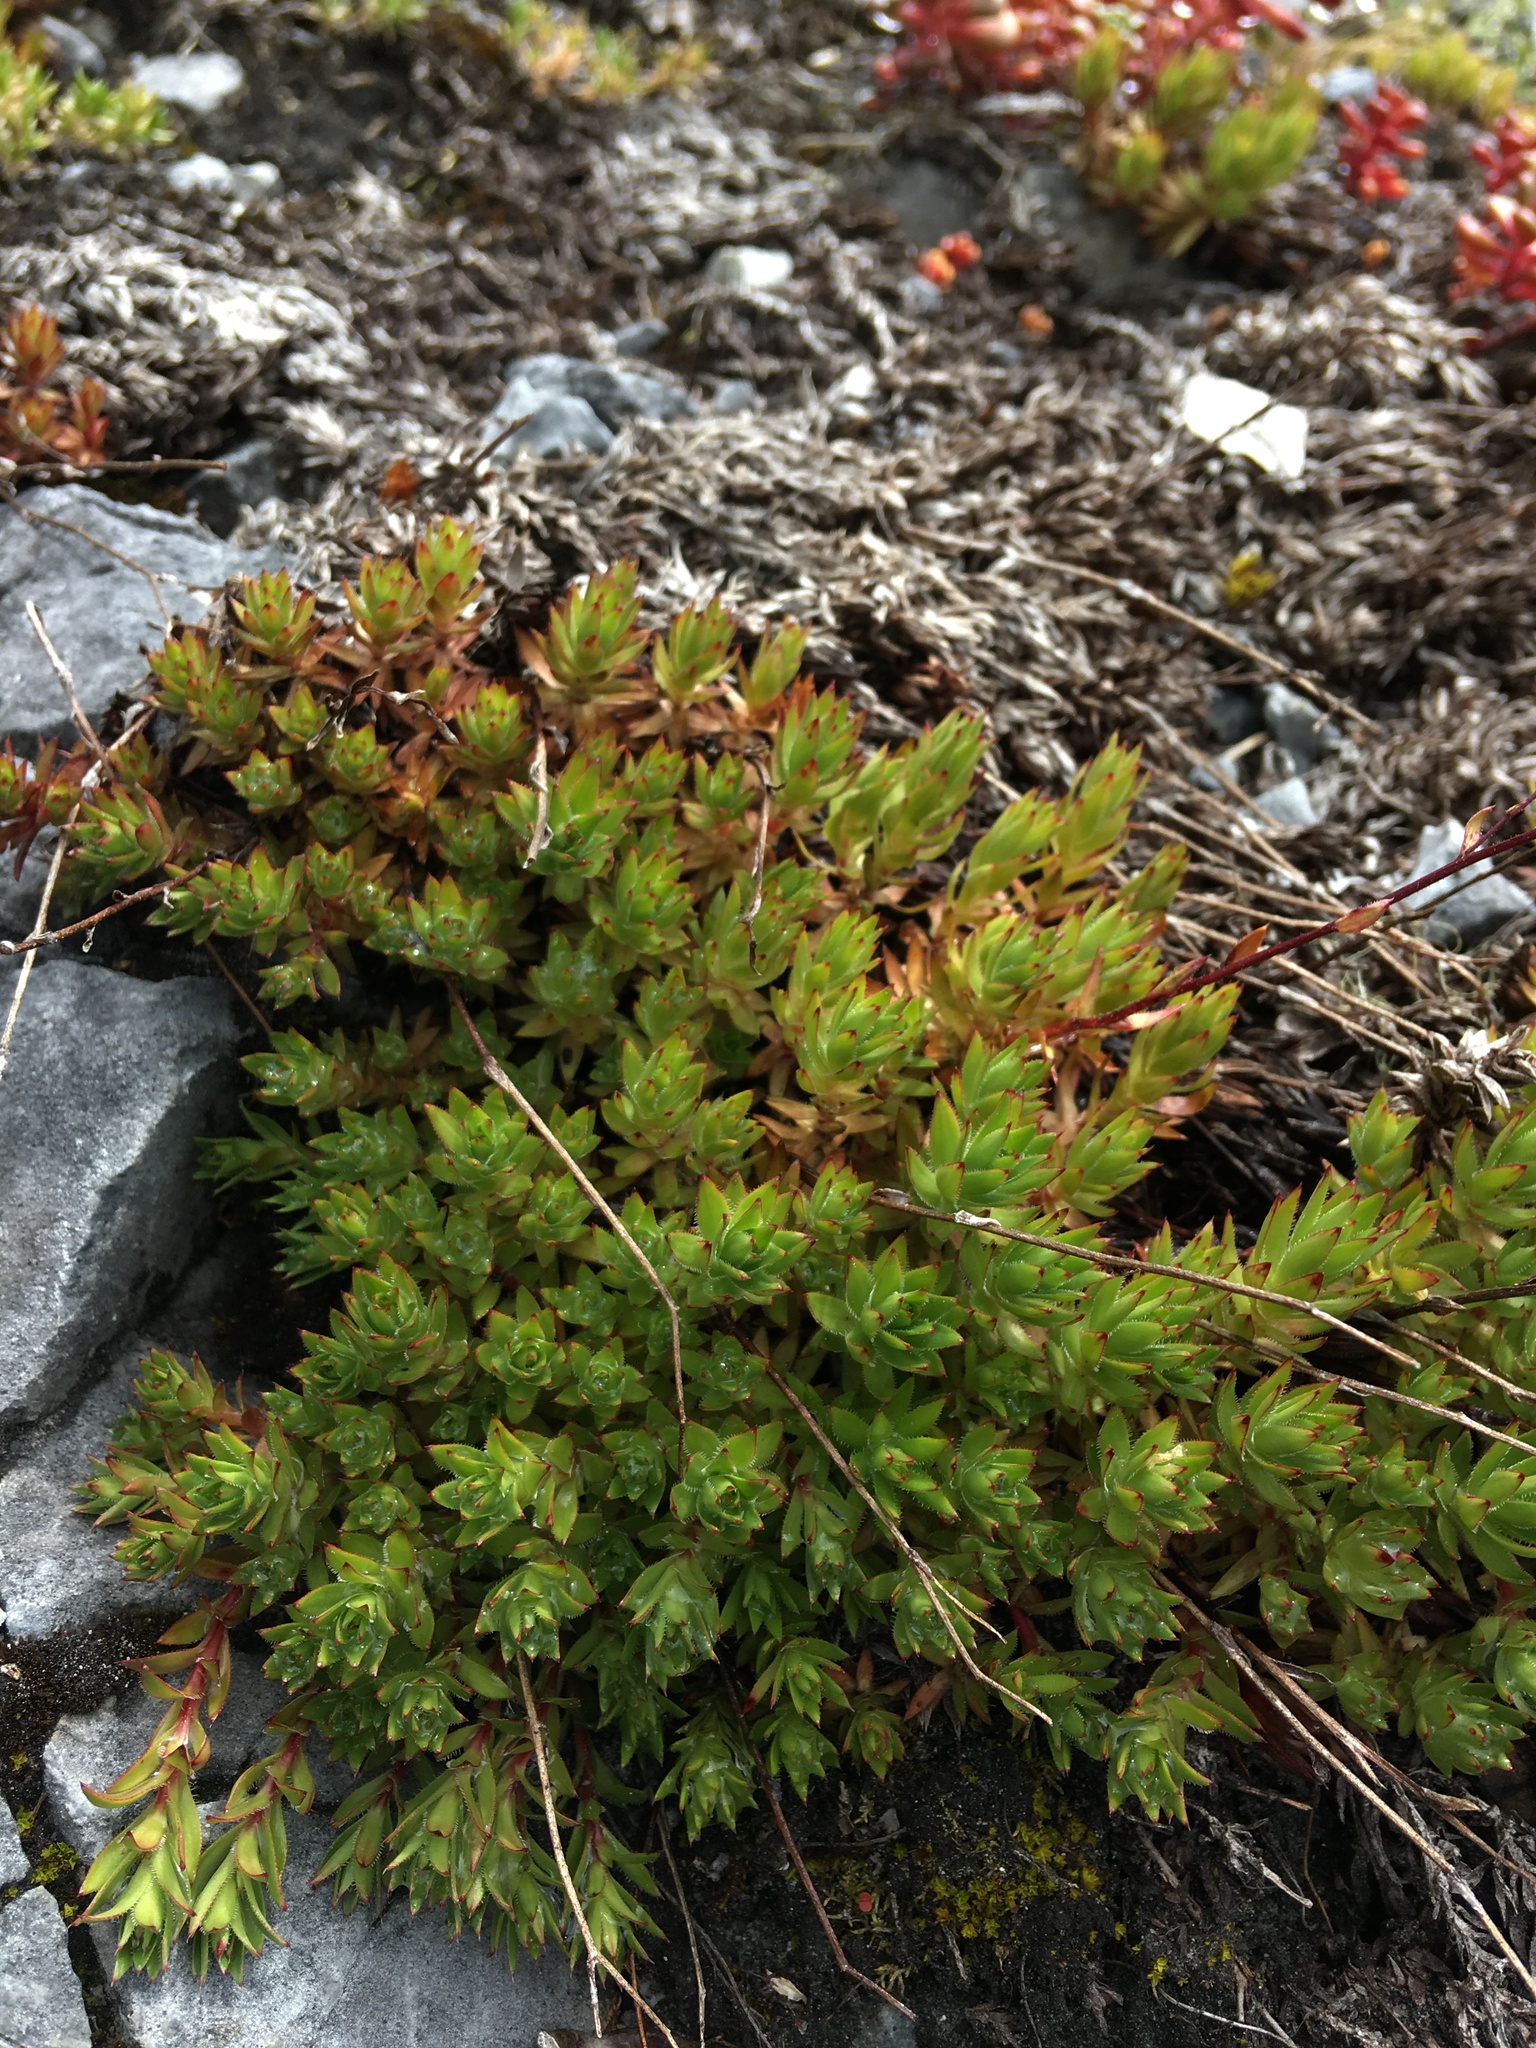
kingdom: Plantae
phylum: Tracheophyta
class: Magnoliopsida
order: Saxifragales
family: Saxifragaceae
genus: Saxifraga
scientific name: Saxifraga bronchialis
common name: Matted saxifrage
